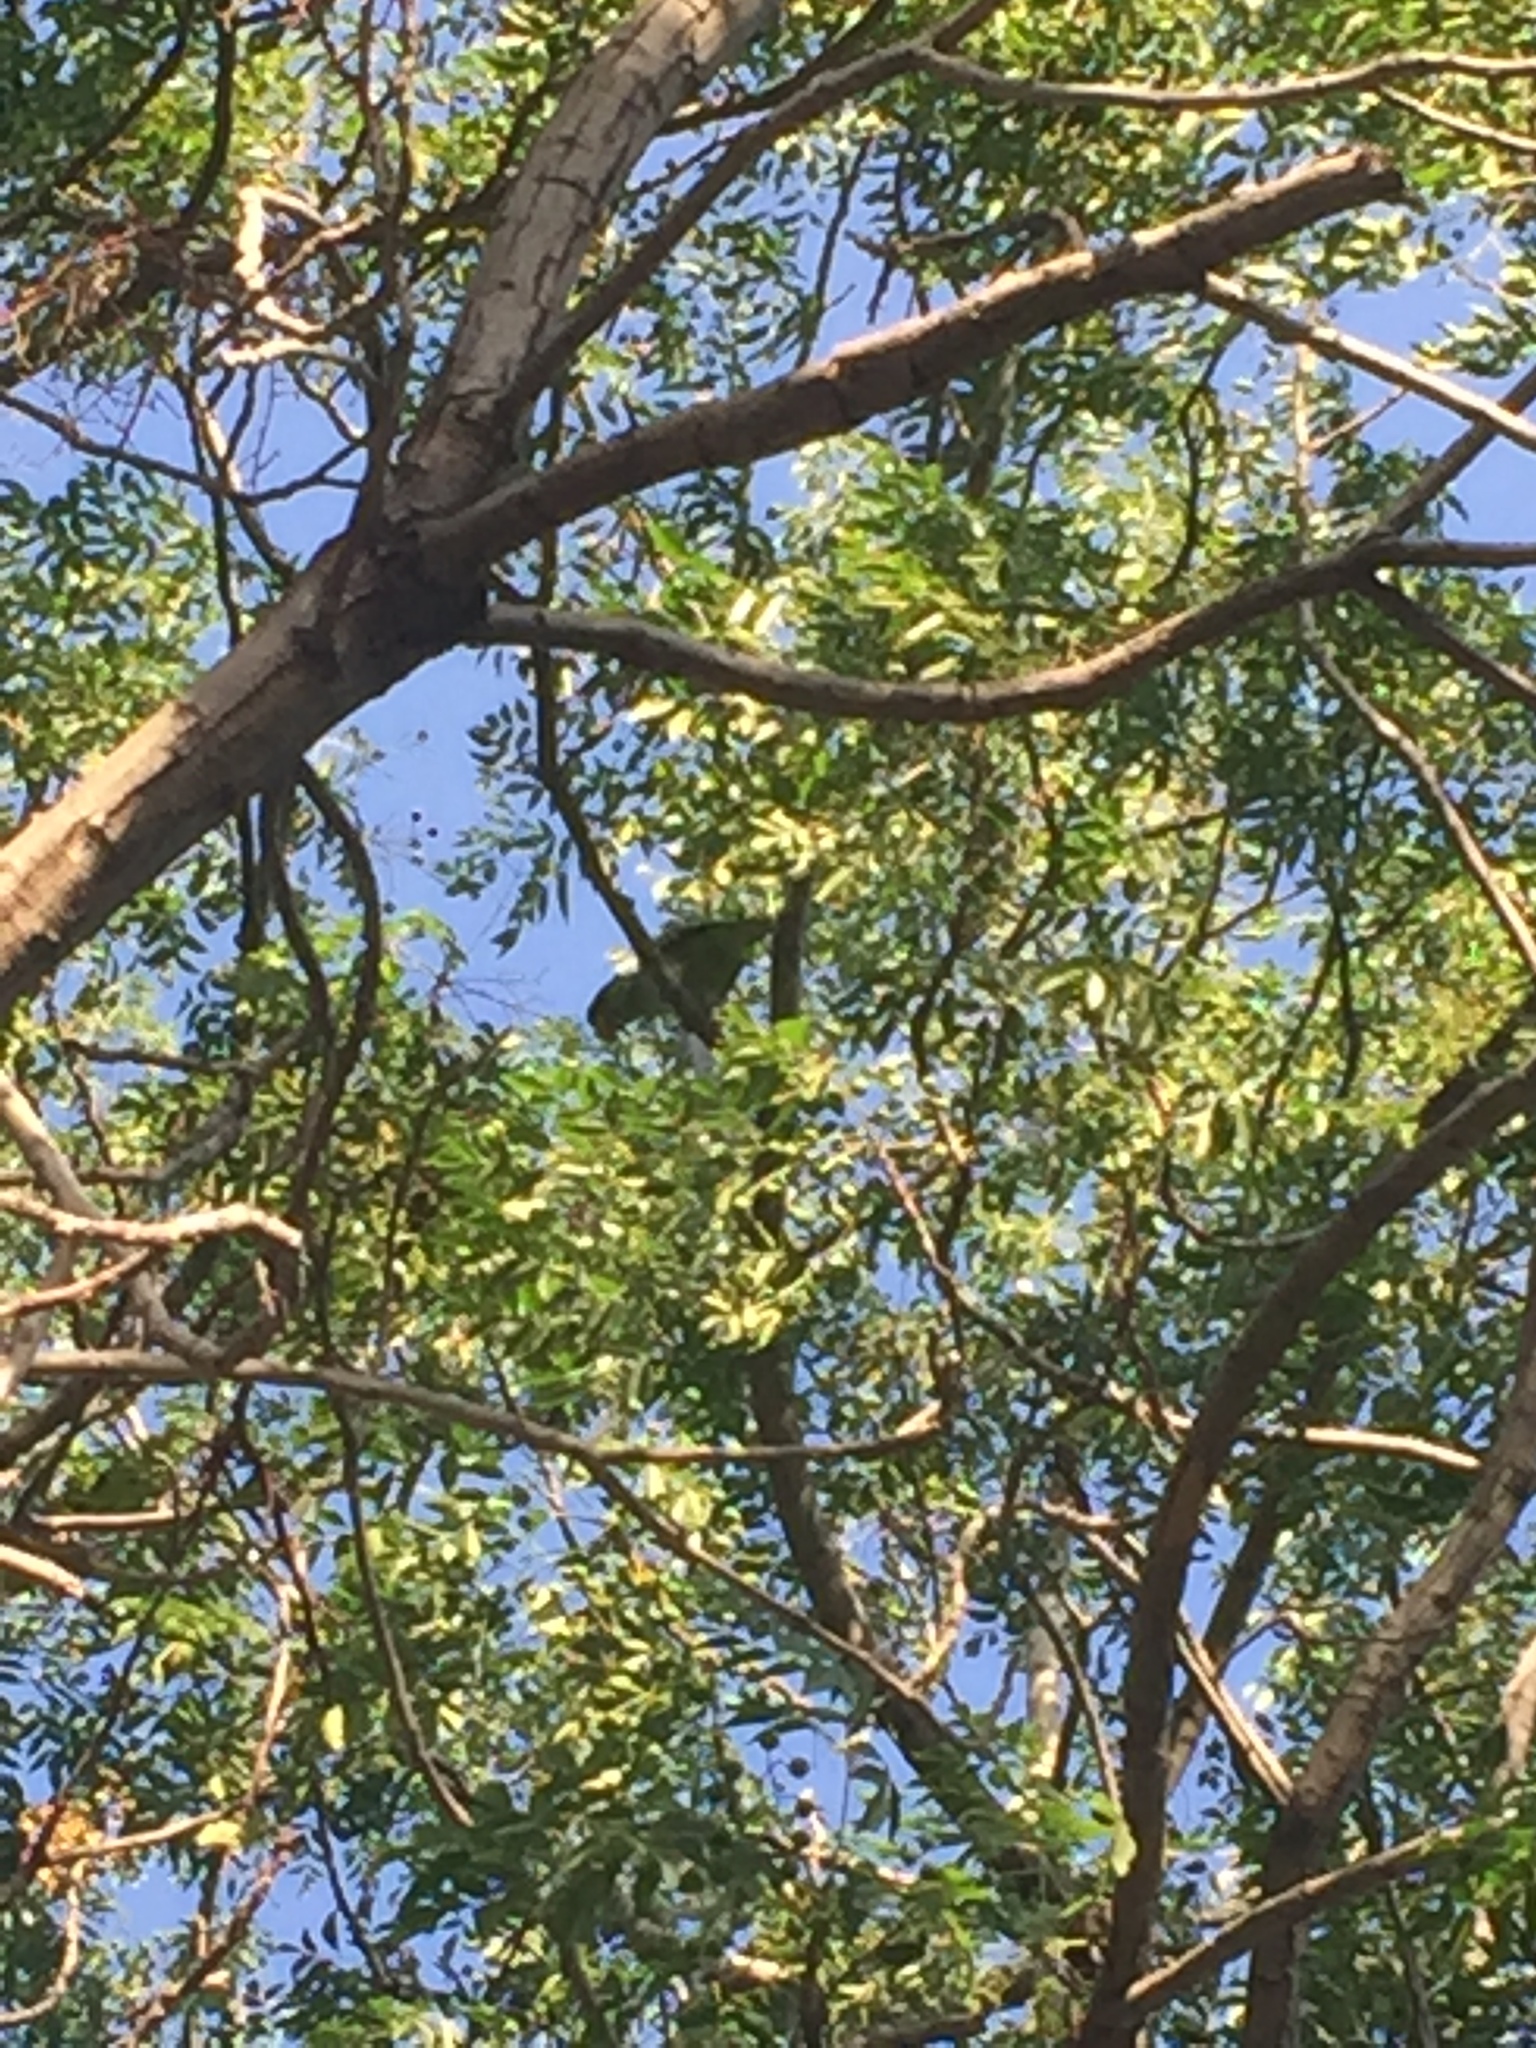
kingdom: Animalia
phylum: Chordata
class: Aves
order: Psittaciformes
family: Psittacidae
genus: Psittacula
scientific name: Psittacula krameri
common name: Rose-ringed parakeet
